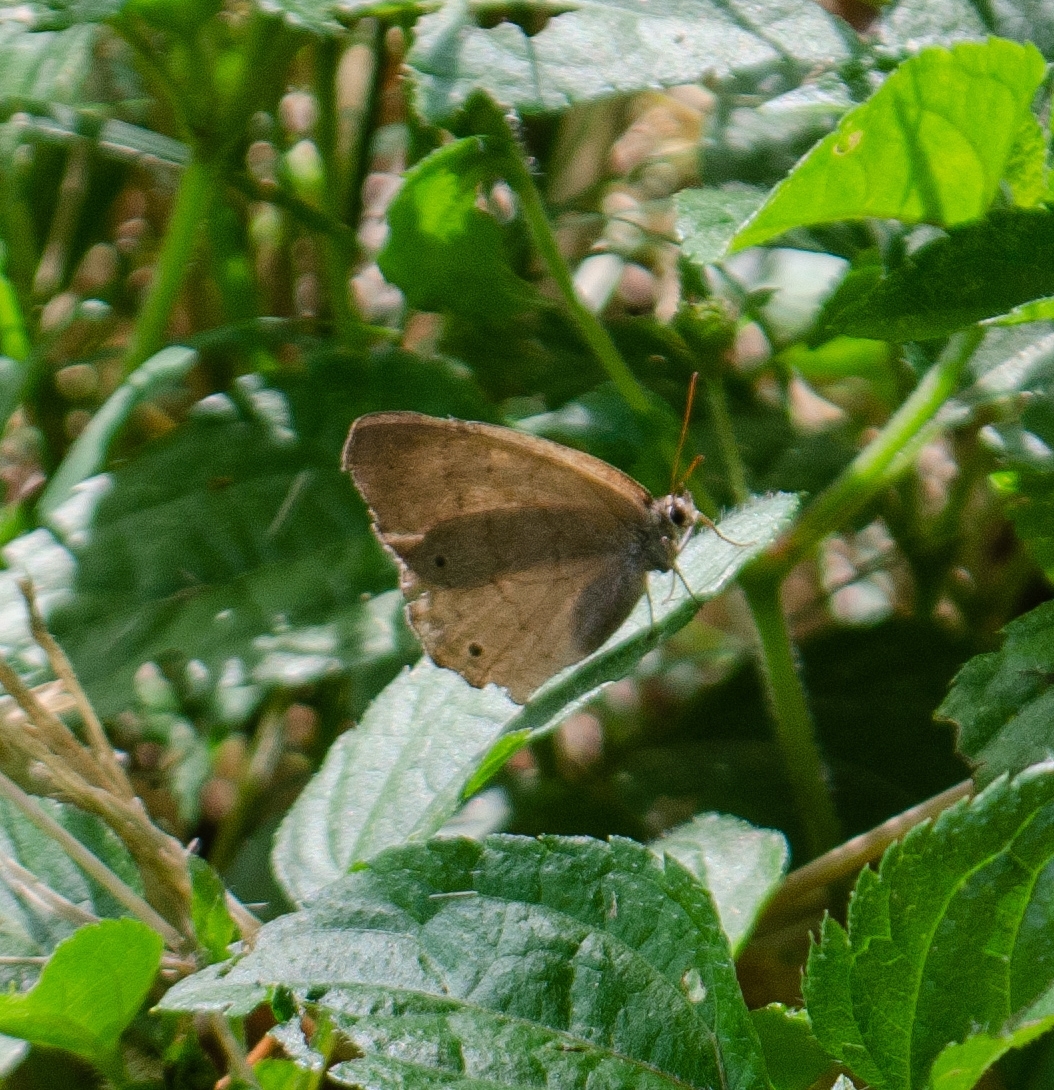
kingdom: Animalia
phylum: Arthropoda
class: Insecta
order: Lepidoptera
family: Nymphalidae
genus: Euptychia
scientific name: Euptychia Cissia eous
